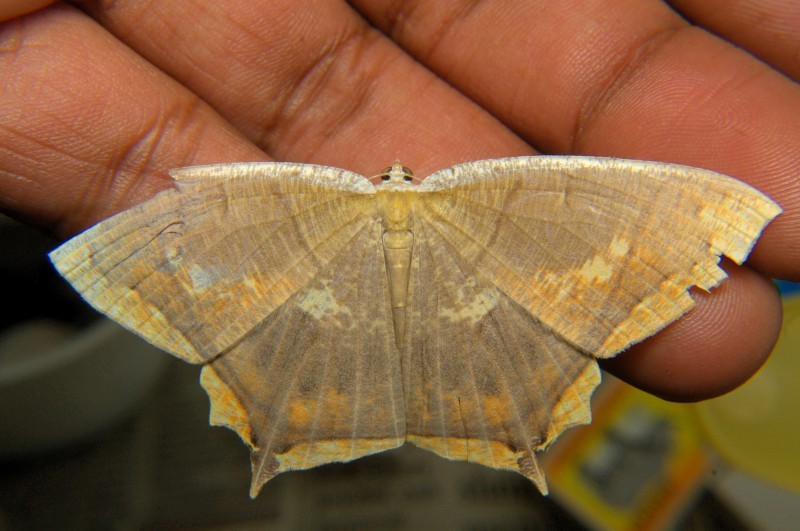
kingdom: Animalia
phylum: Arthropoda
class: Insecta
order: Lepidoptera
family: Geometridae
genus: Thinopteryx
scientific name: Thinopteryx crocoptera
